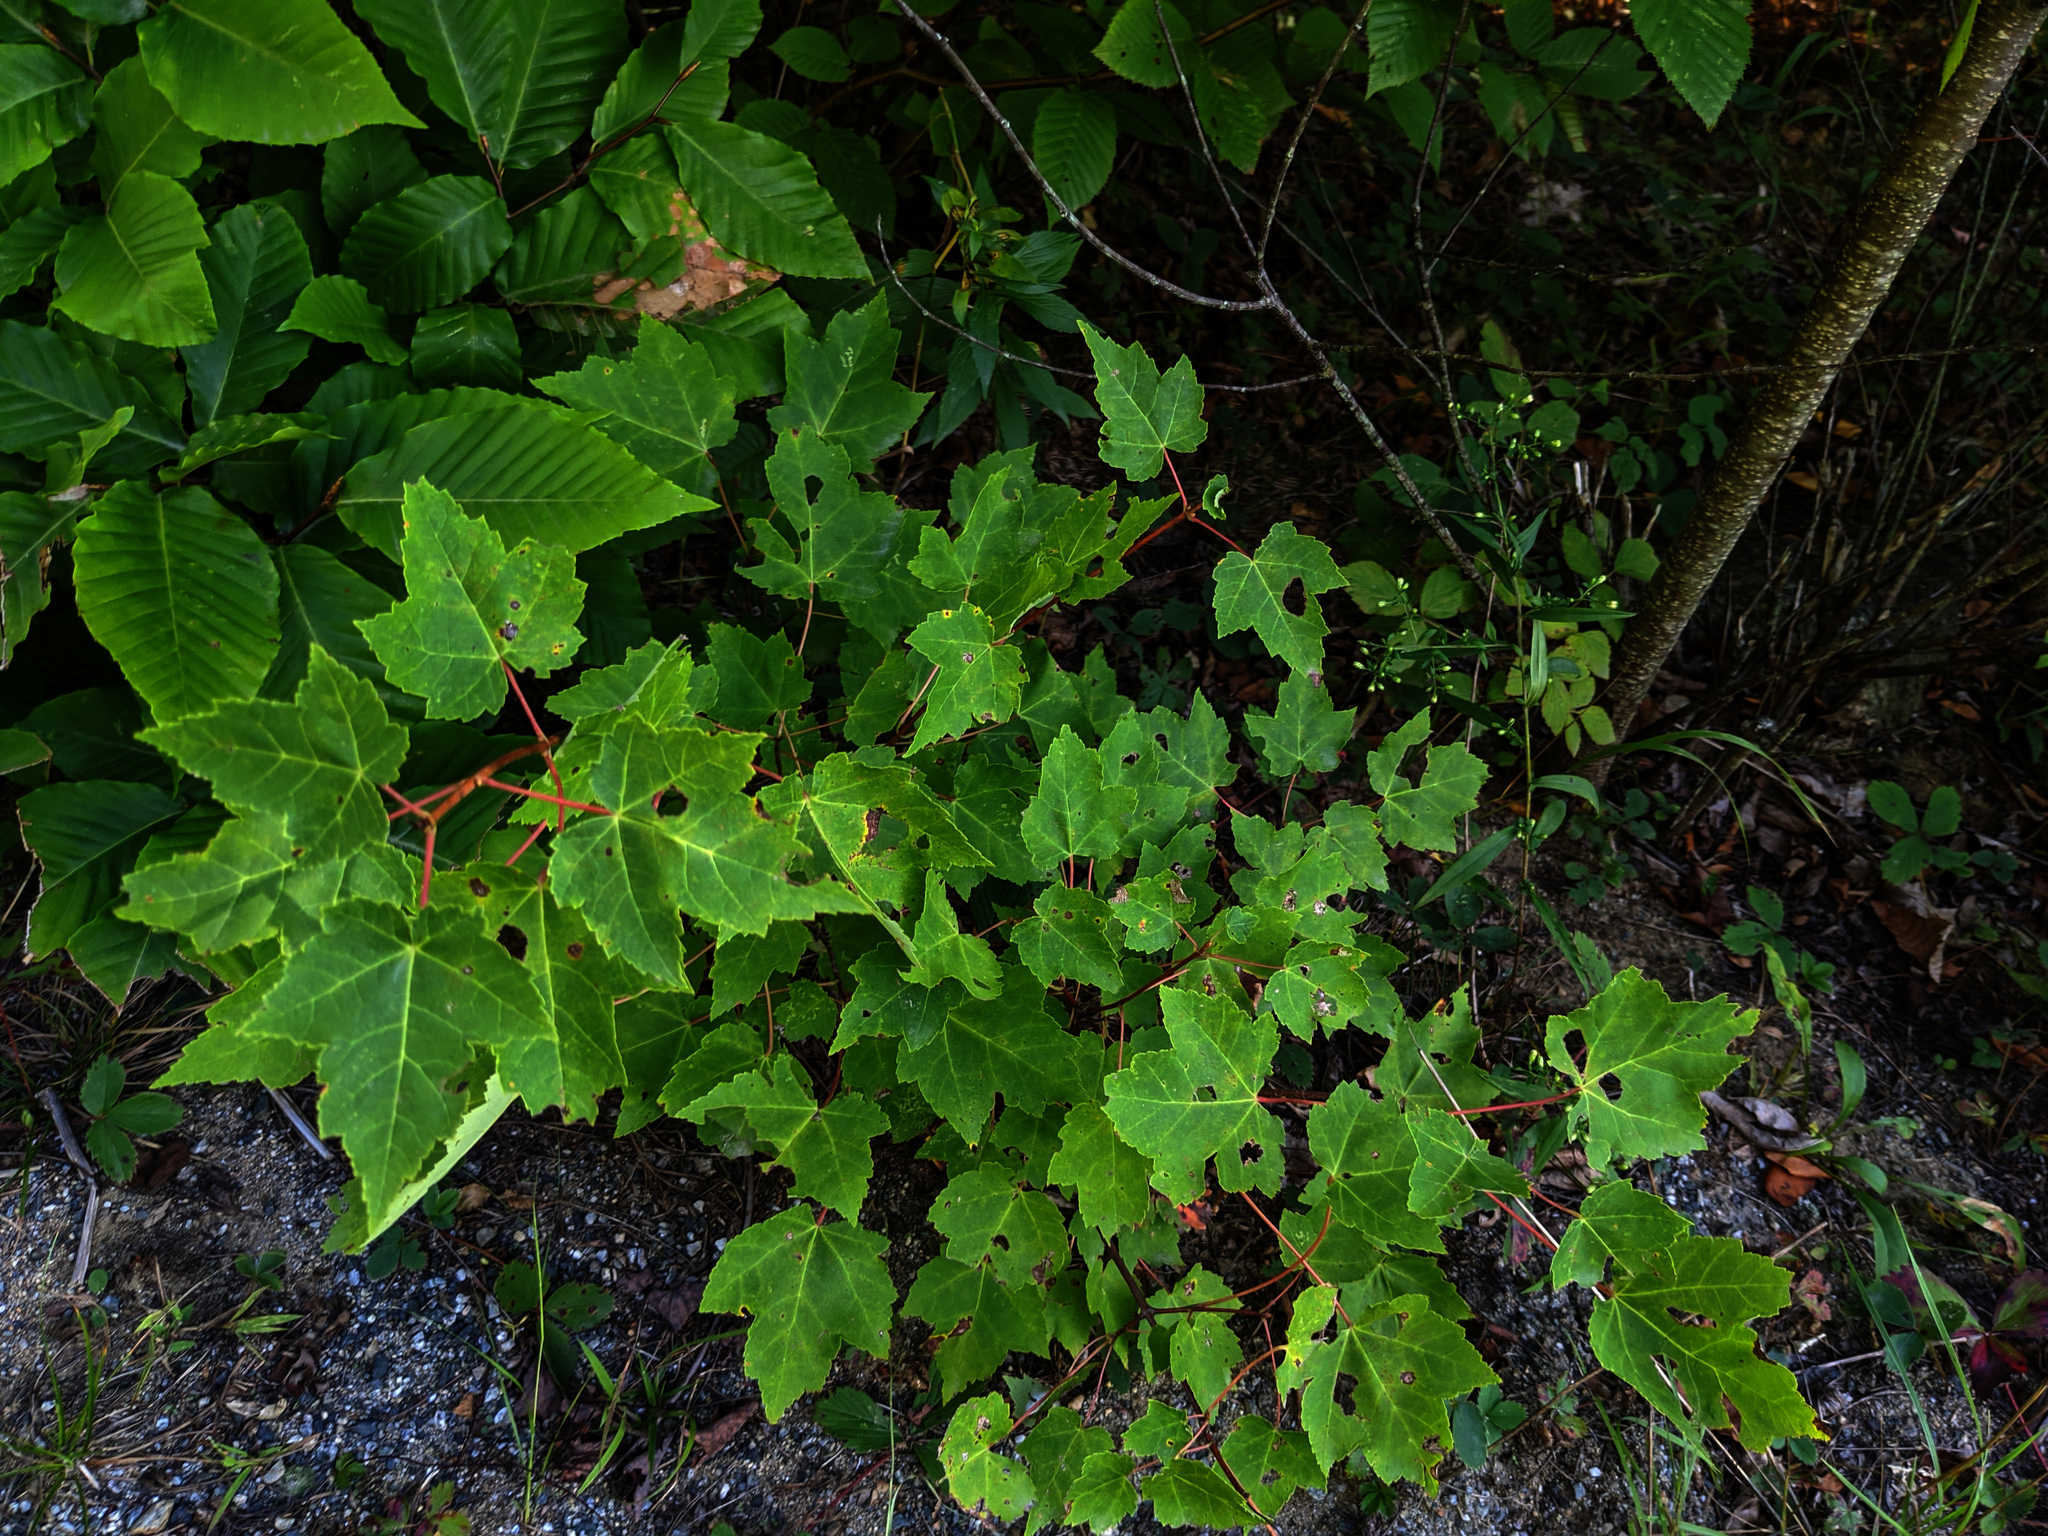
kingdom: Plantae
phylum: Tracheophyta
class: Magnoliopsida
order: Sapindales
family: Sapindaceae
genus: Acer
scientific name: Acer rubrum
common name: Red maple
